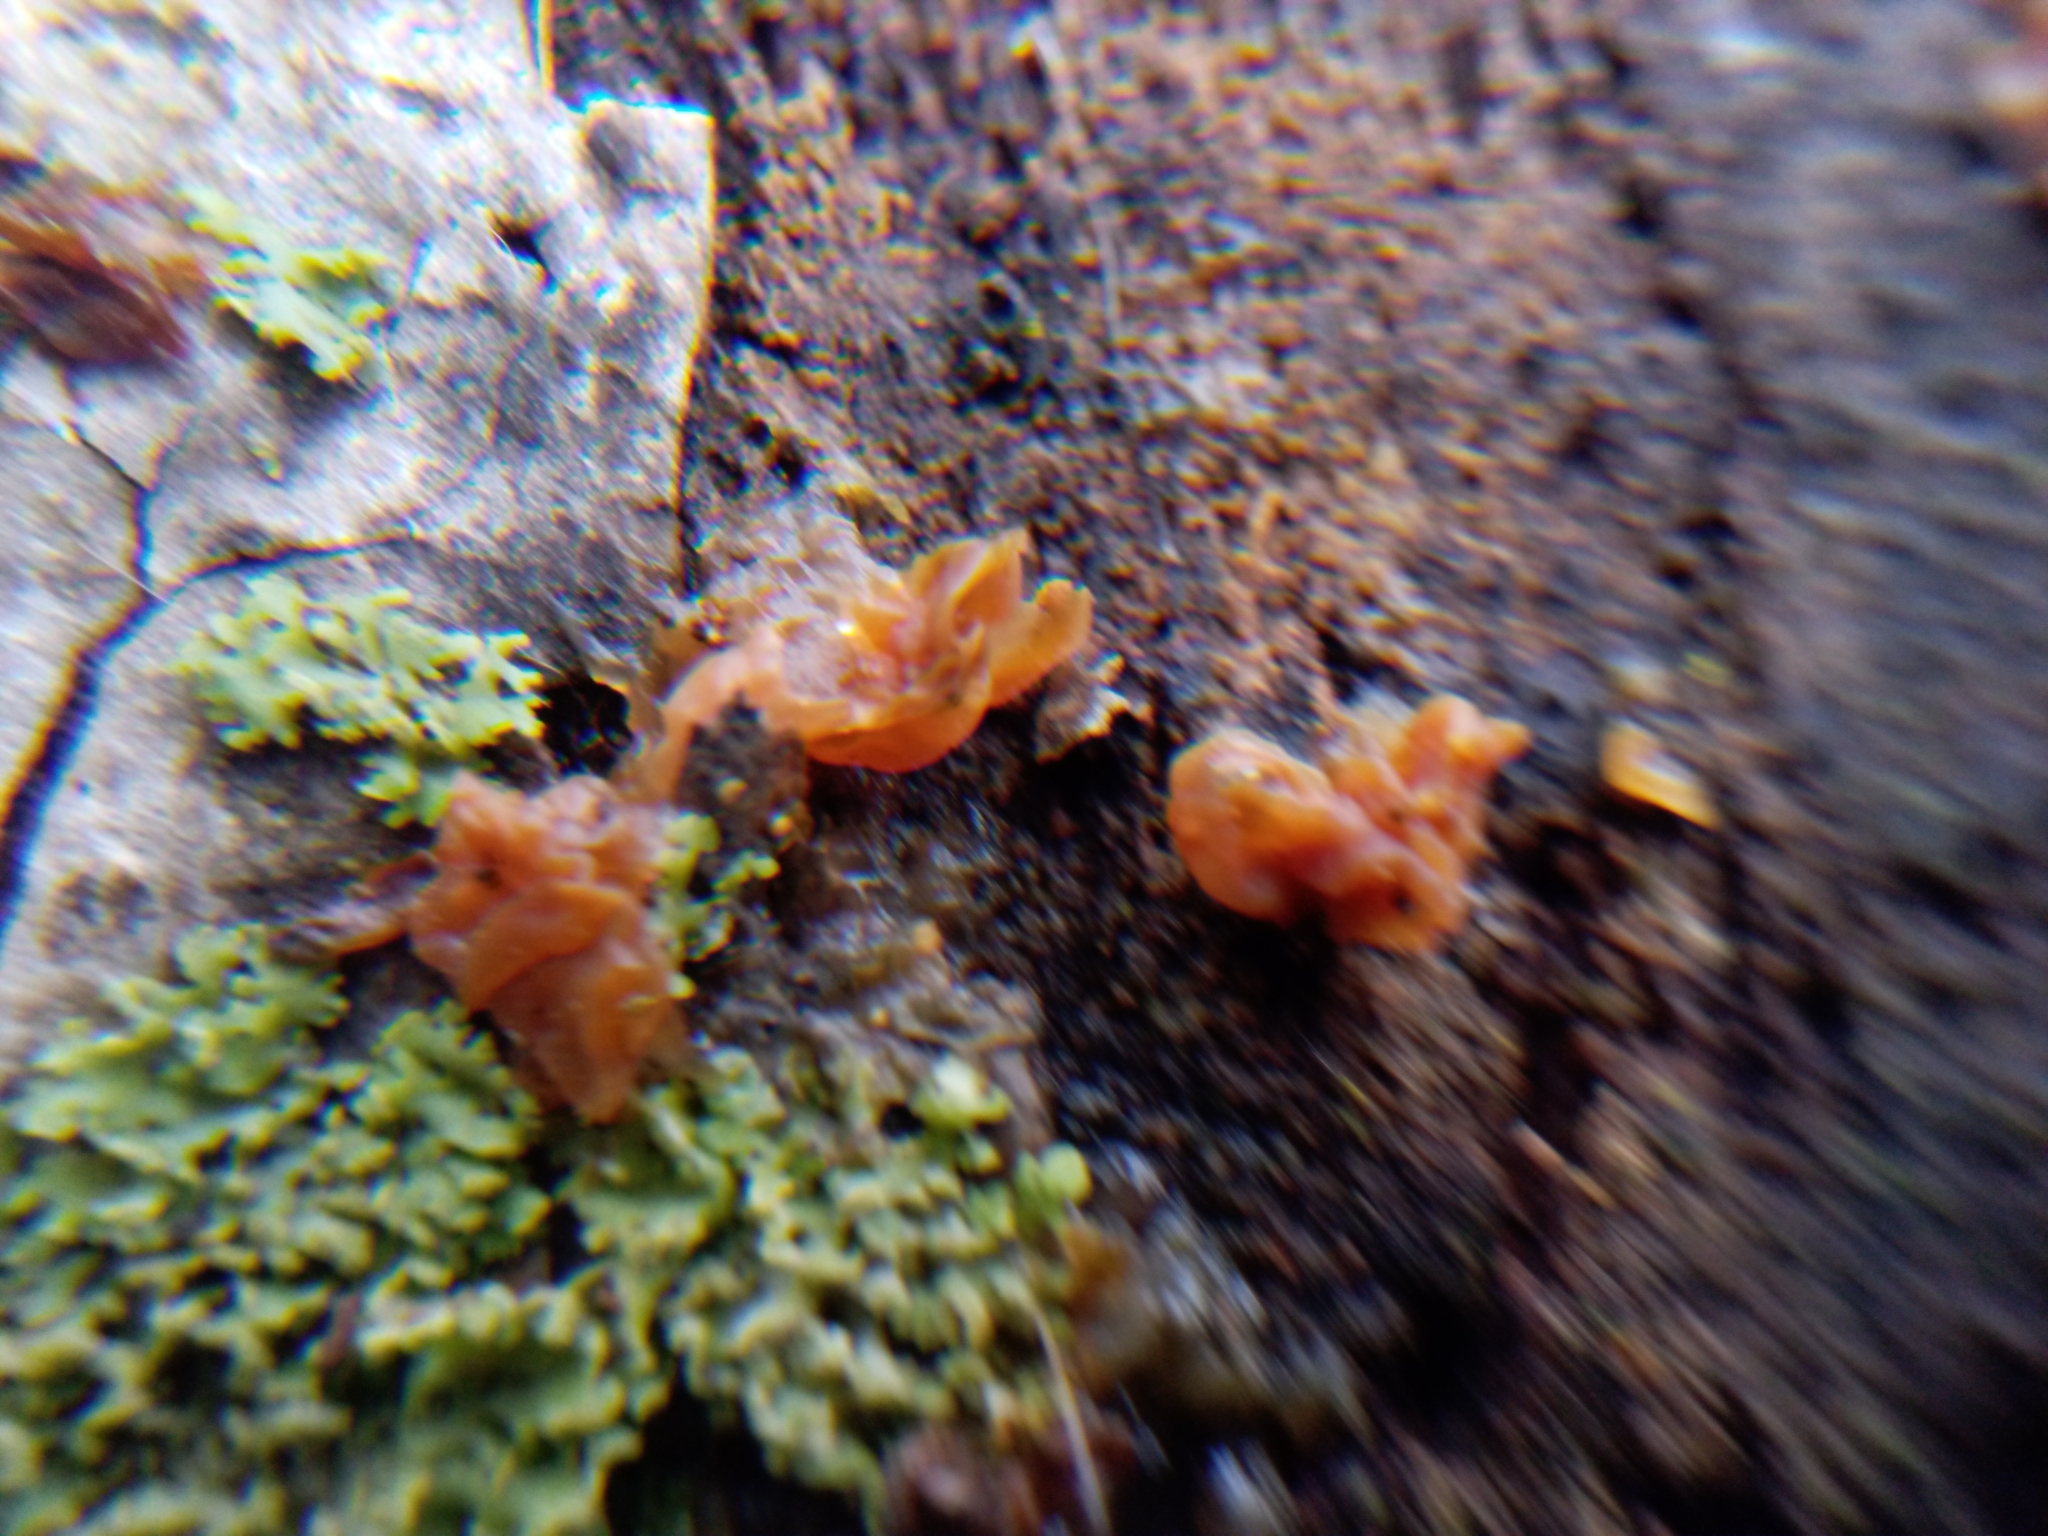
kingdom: Fungi
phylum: Basidiomycota
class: Agaricomycetes
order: Auriculariales
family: Hyaloriaceae
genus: Myxarium
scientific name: Myxarium nucleatum
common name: Crystal brain fungus
